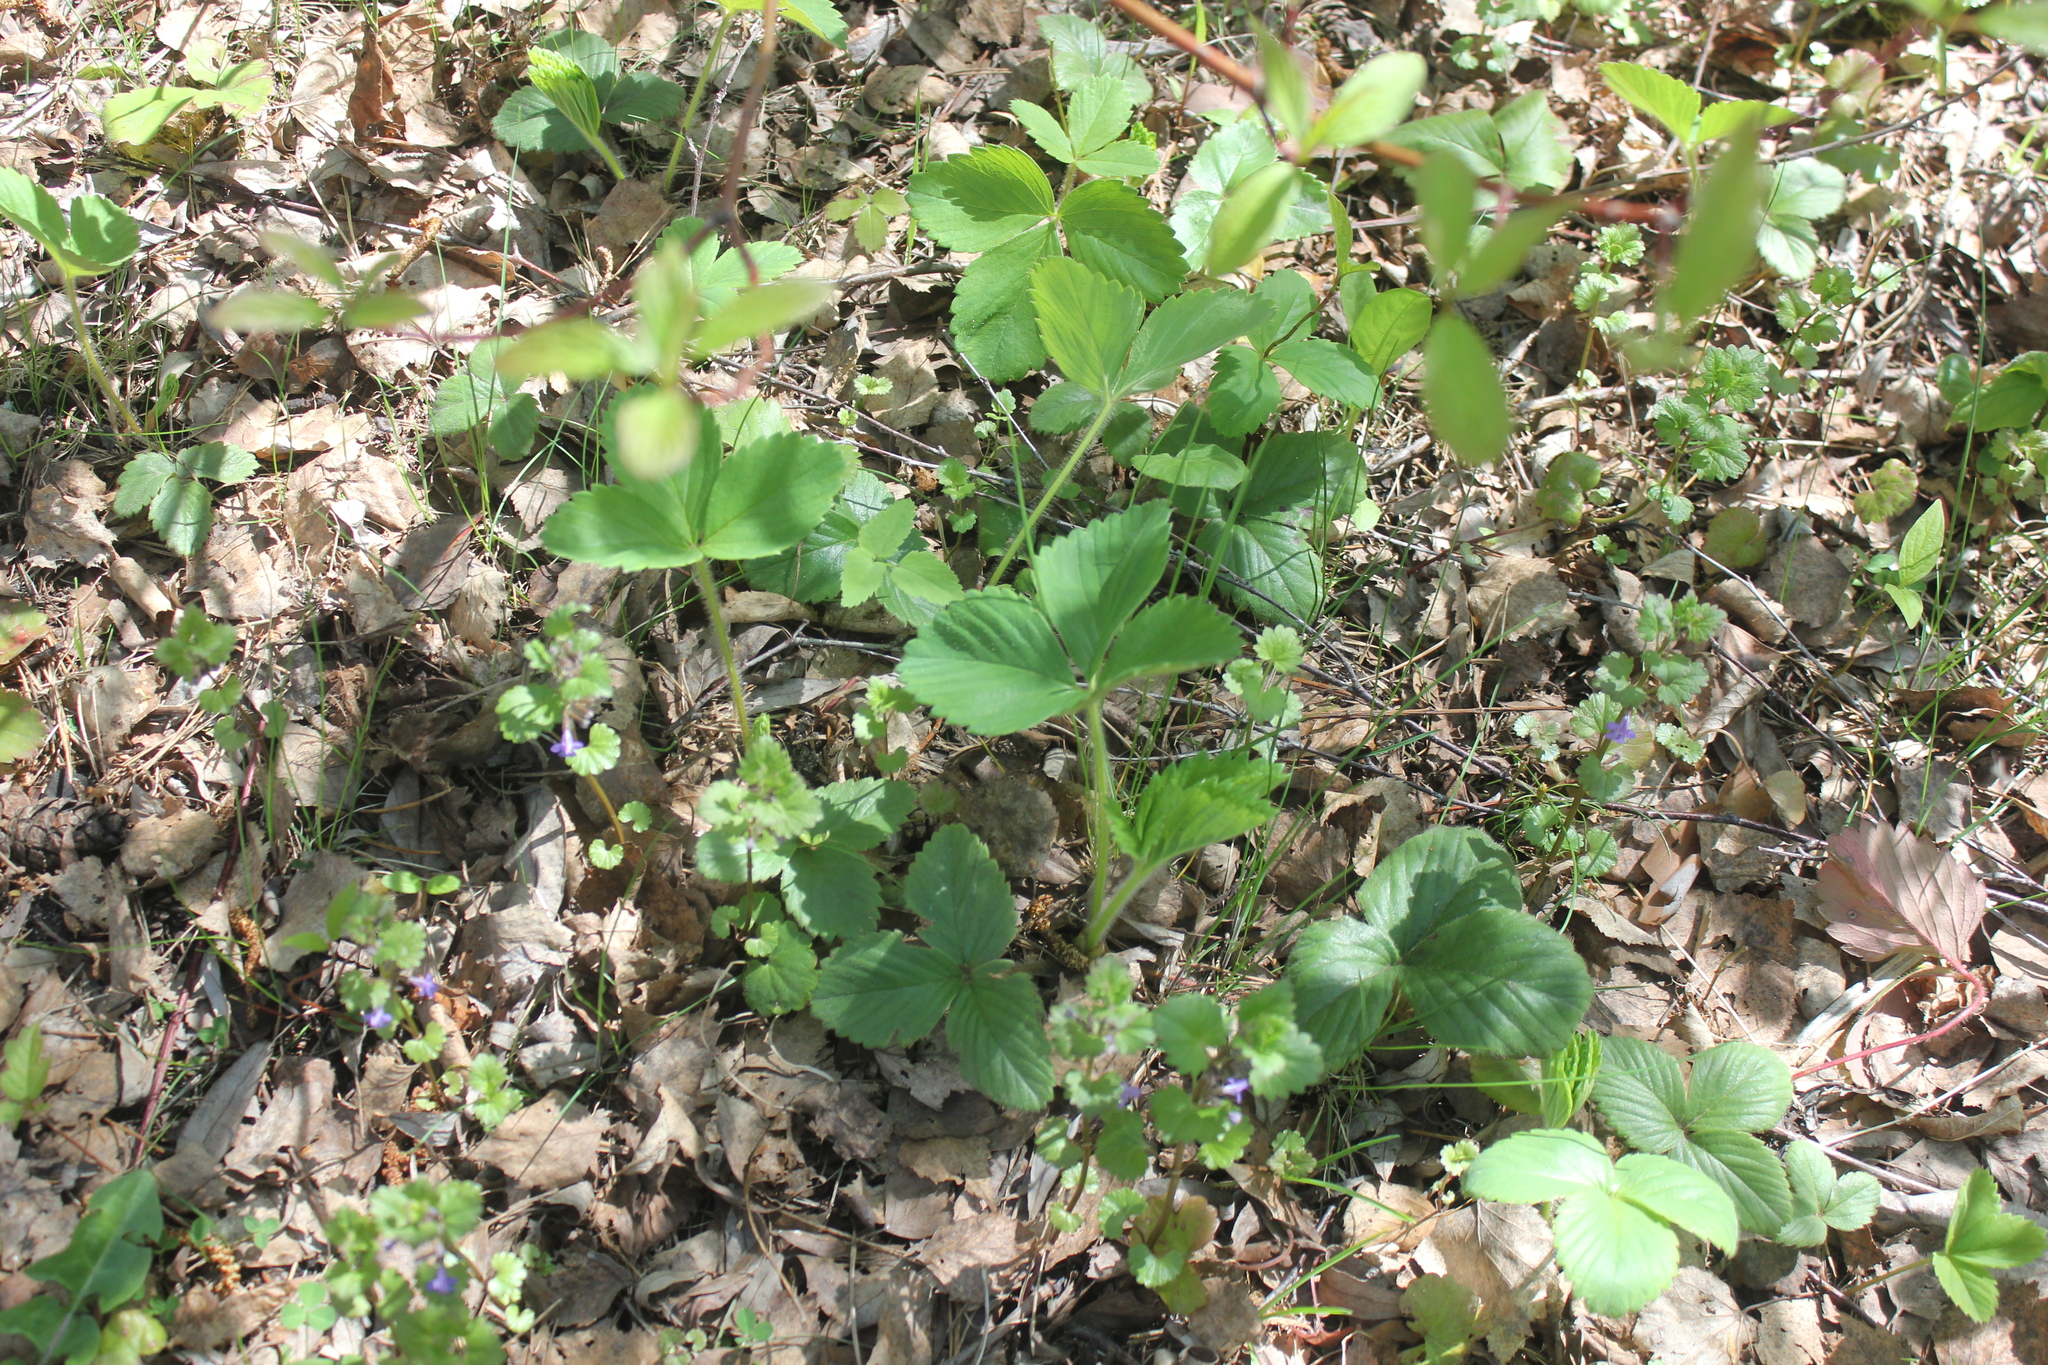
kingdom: Plantae
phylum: Tracheophyta
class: Magnoliopsida
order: Rosales
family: Rosaceae
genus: Fragaria
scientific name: Fragaria ananassa
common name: Garden strawberry
